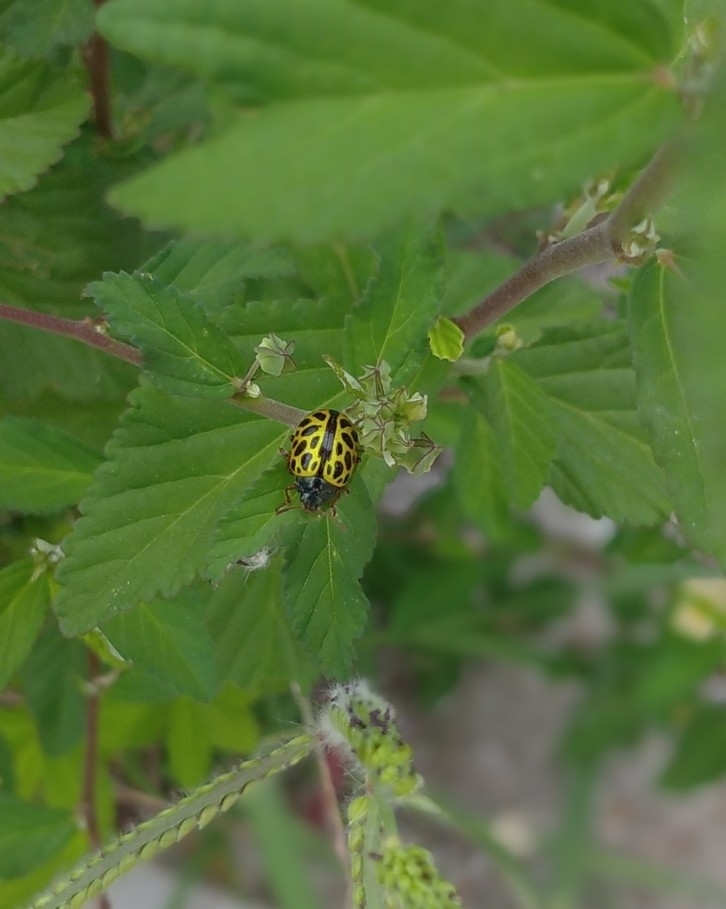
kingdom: Animalia
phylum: Arthropoda
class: Insecta
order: Coleoptera
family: Chrysomelidae
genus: Calligrapha
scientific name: Calligrapha polyspila
